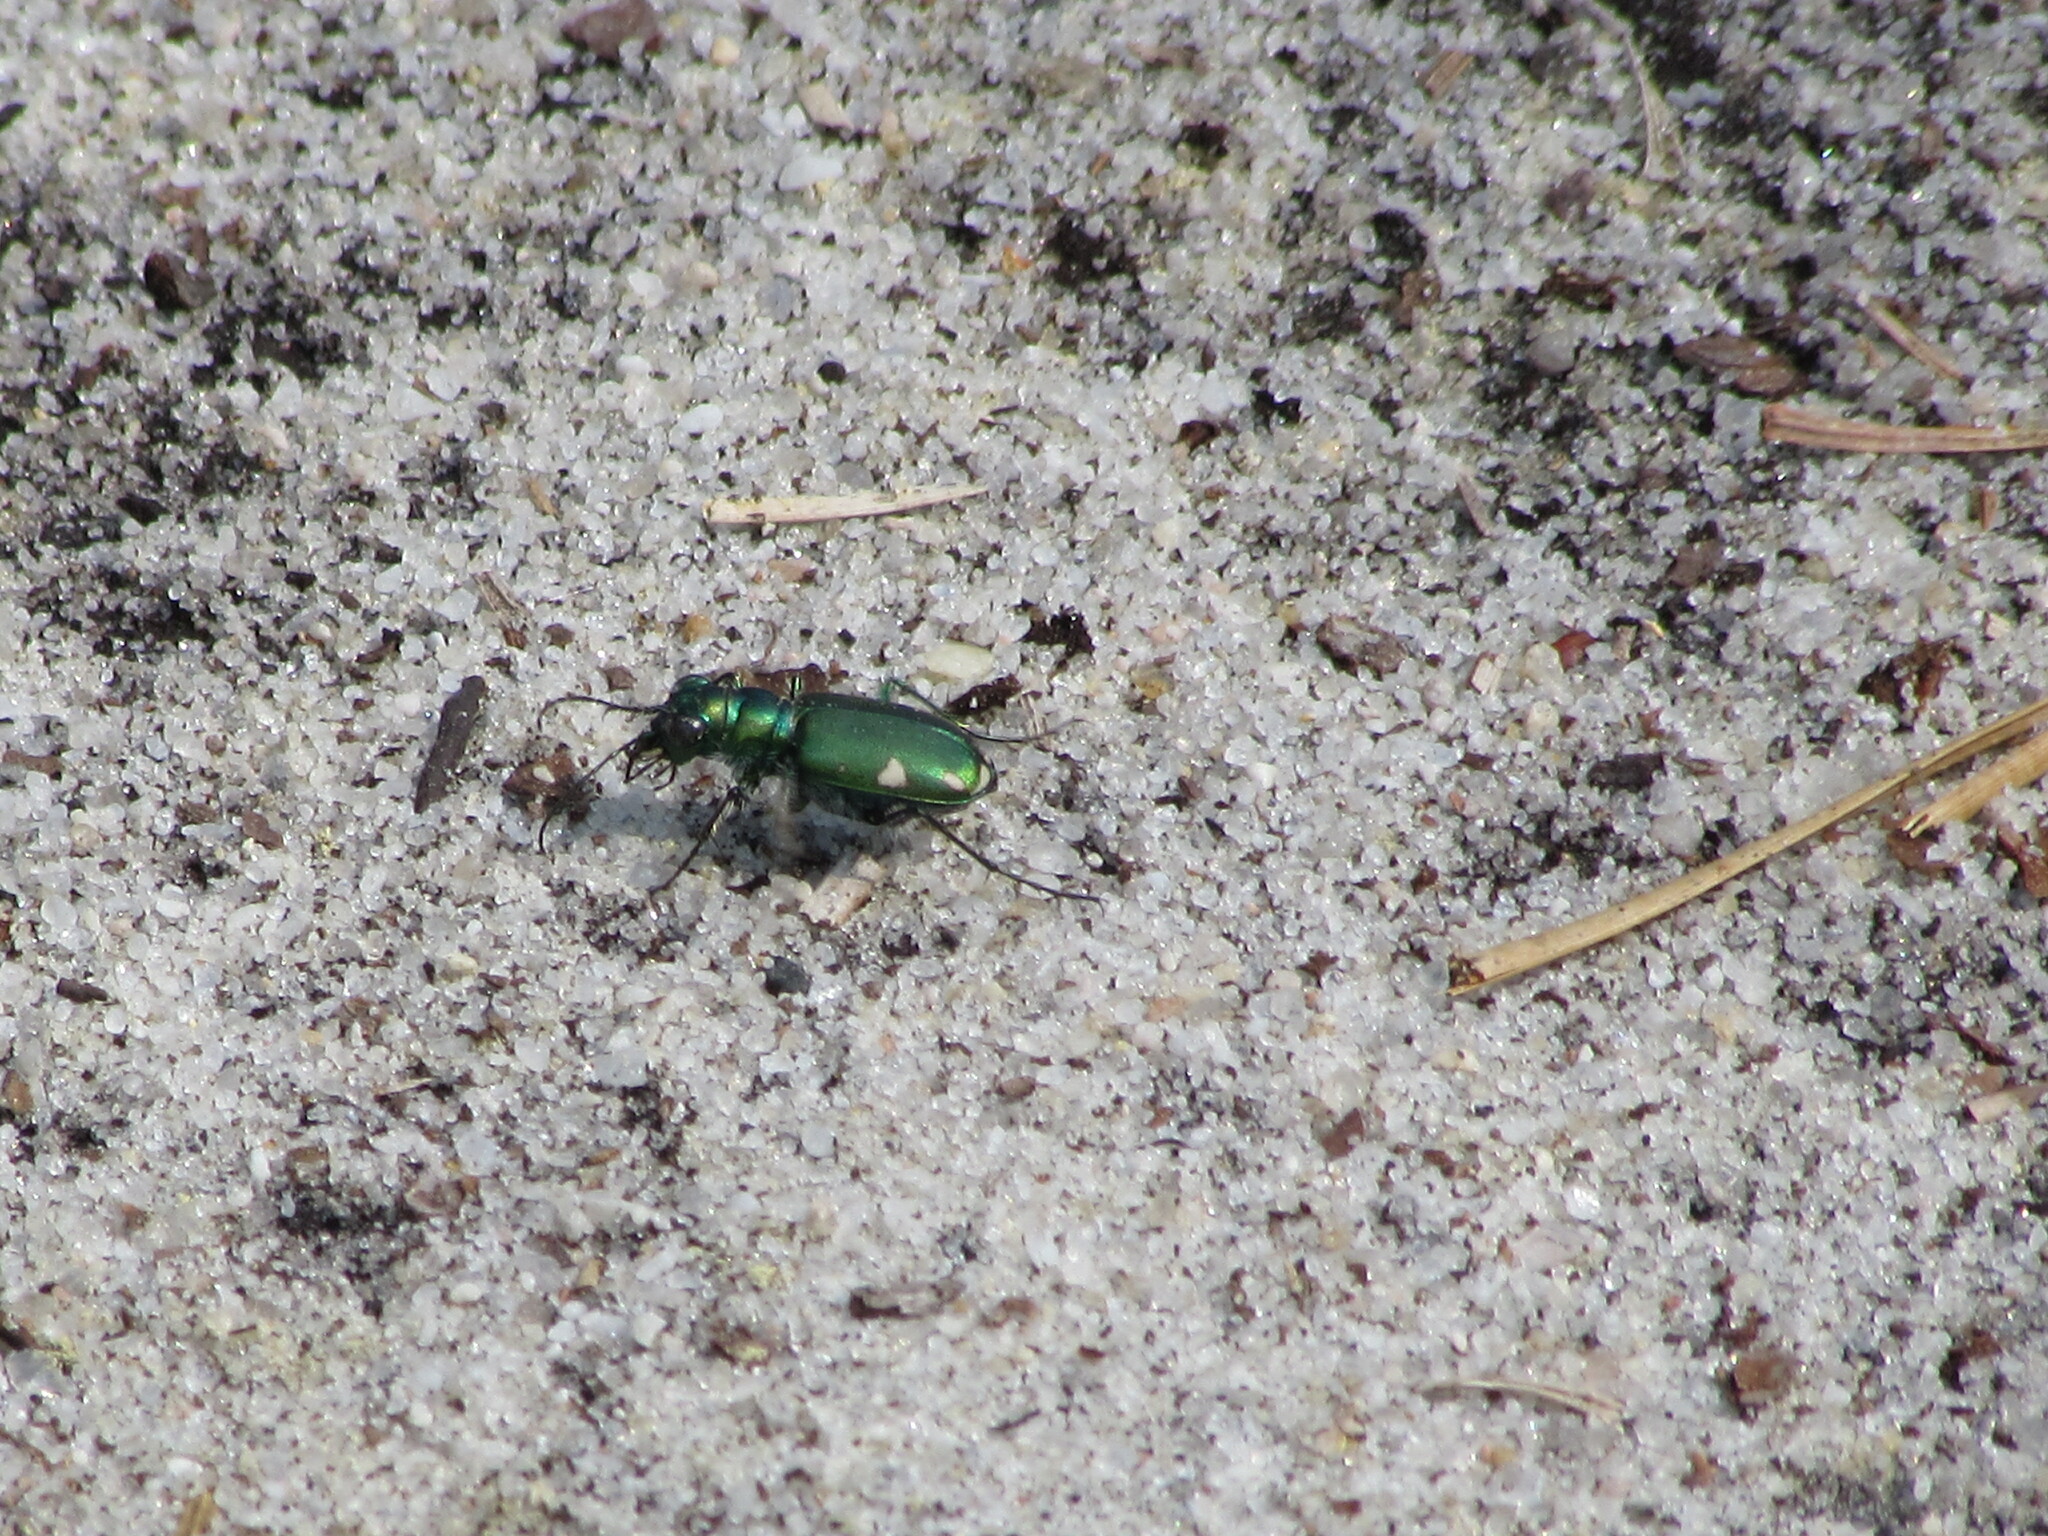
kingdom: Animalia
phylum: Arthropoda
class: Insecta
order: Coleoptera
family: Carabidae
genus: Cicindela
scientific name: Cicindela scutellaris
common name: Festive tiger beetle
